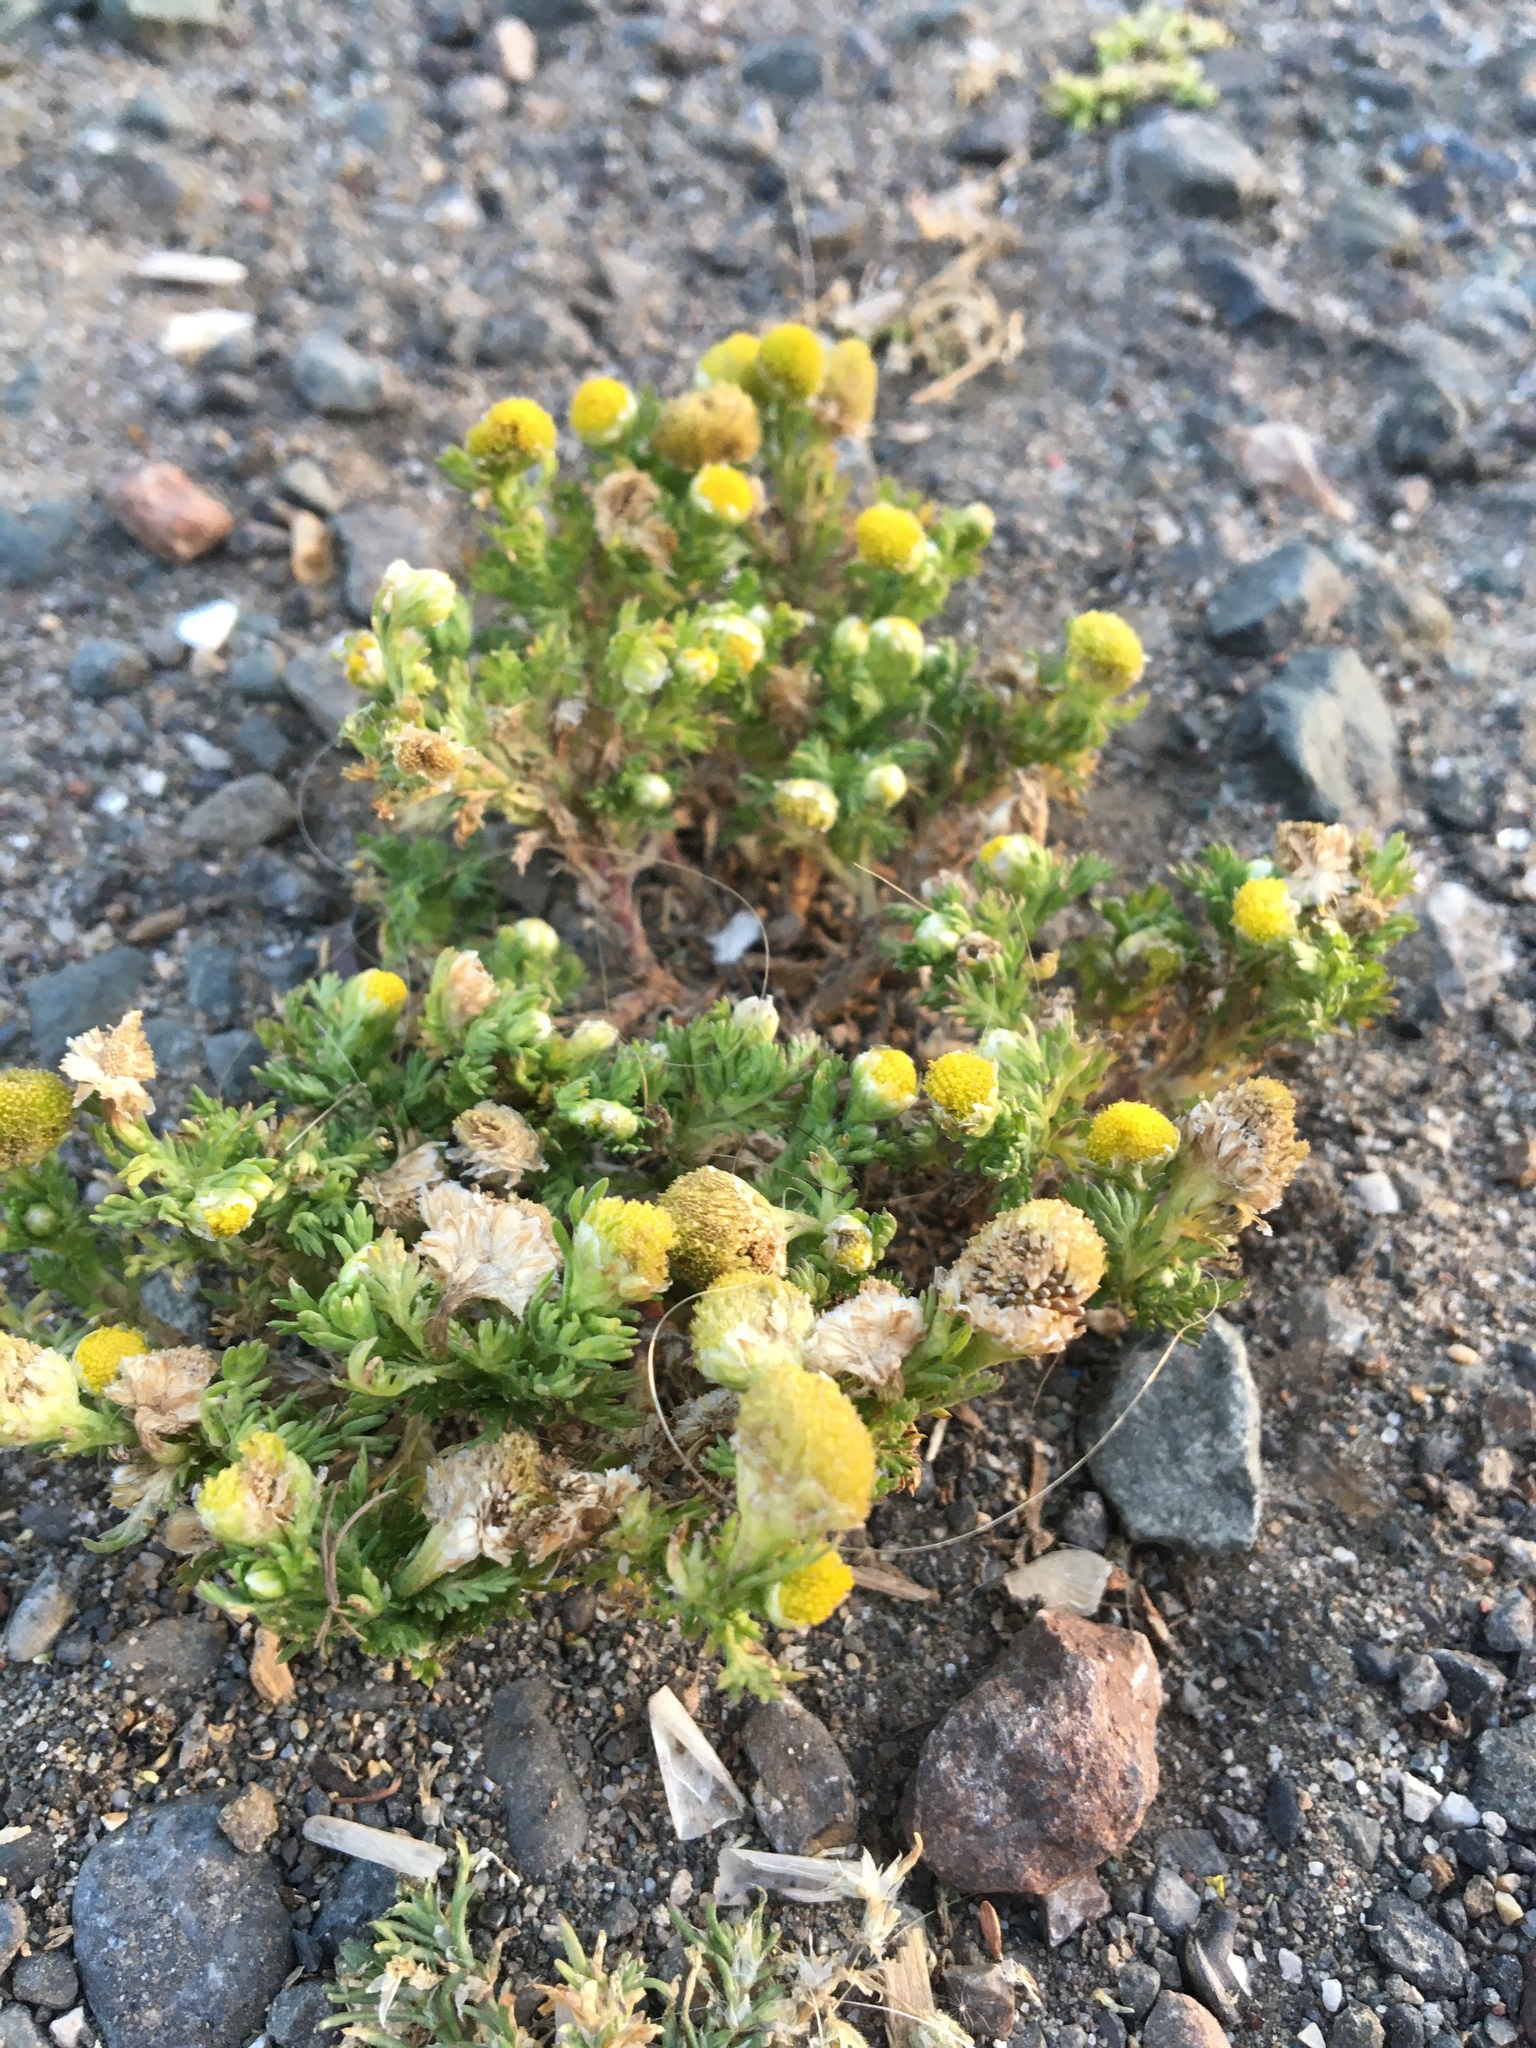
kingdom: Plantae
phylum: Tracheophyta
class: Magnoliopsida
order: Asterales
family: Asteraceae
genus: Matricaria
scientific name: Matricaria discoidea
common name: Disc mayweed
